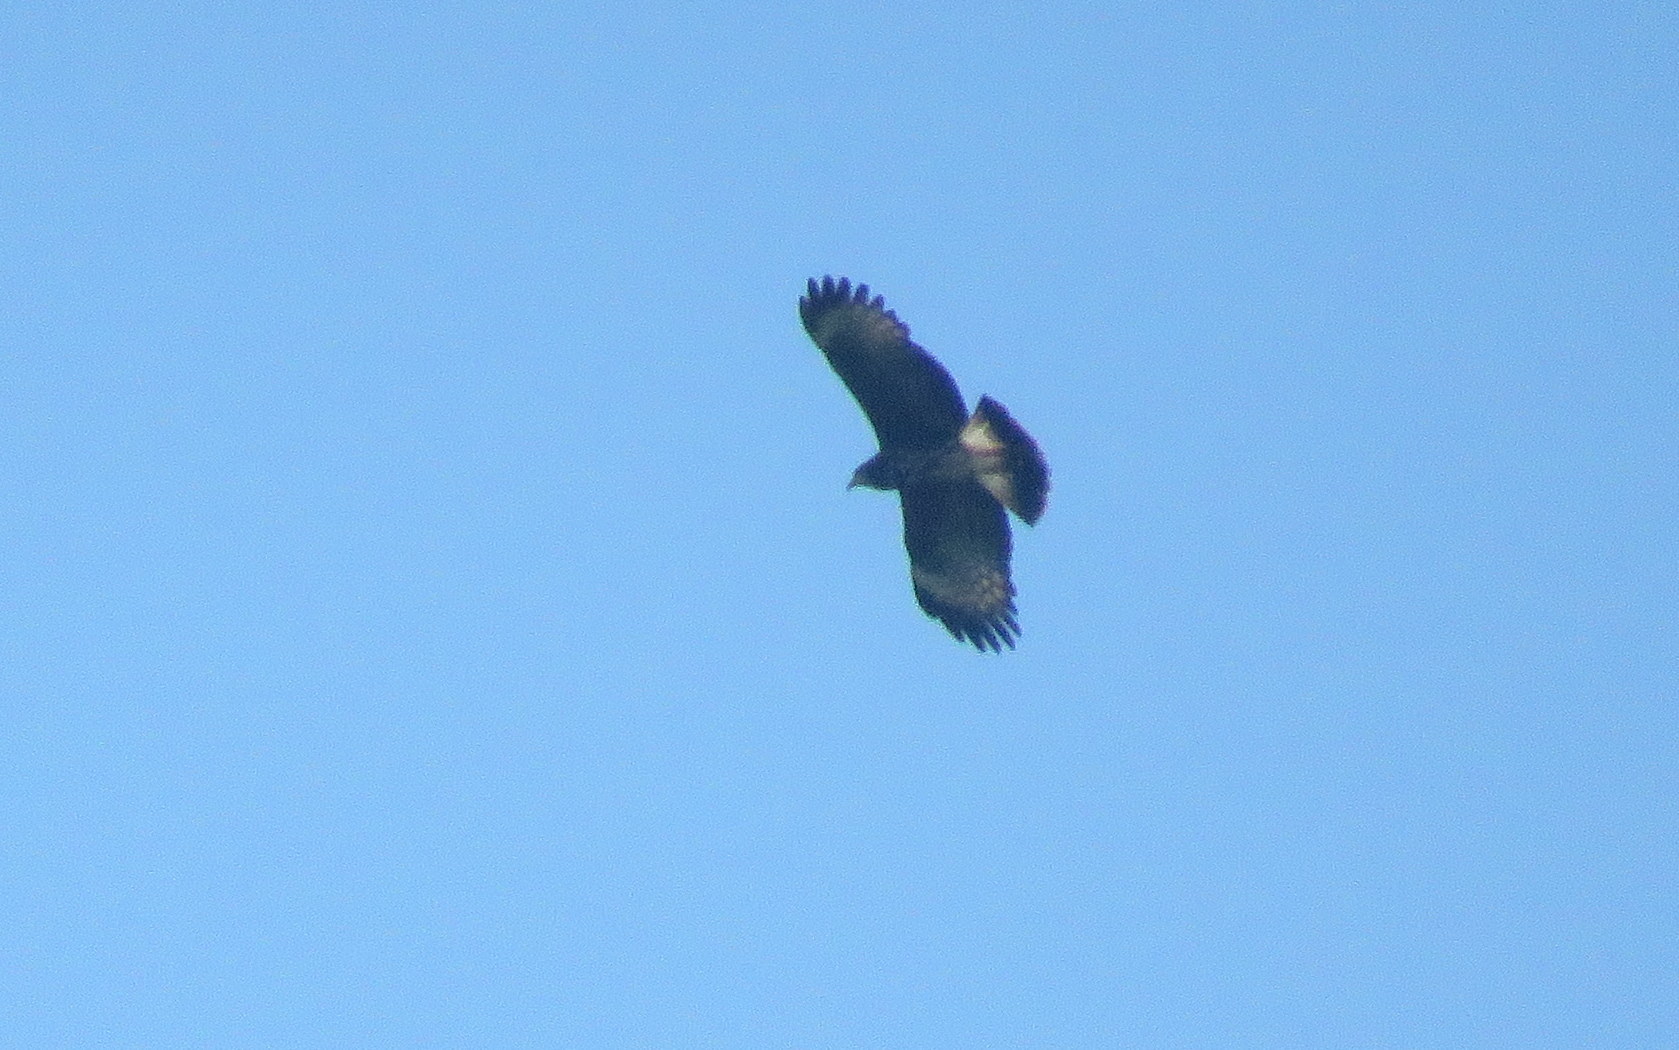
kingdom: Animalia
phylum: Chordata
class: Aves
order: Accipitriformes
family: Accipitridae
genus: Rostrhamus
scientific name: Rostrhamus sociabilis
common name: Snail kite
